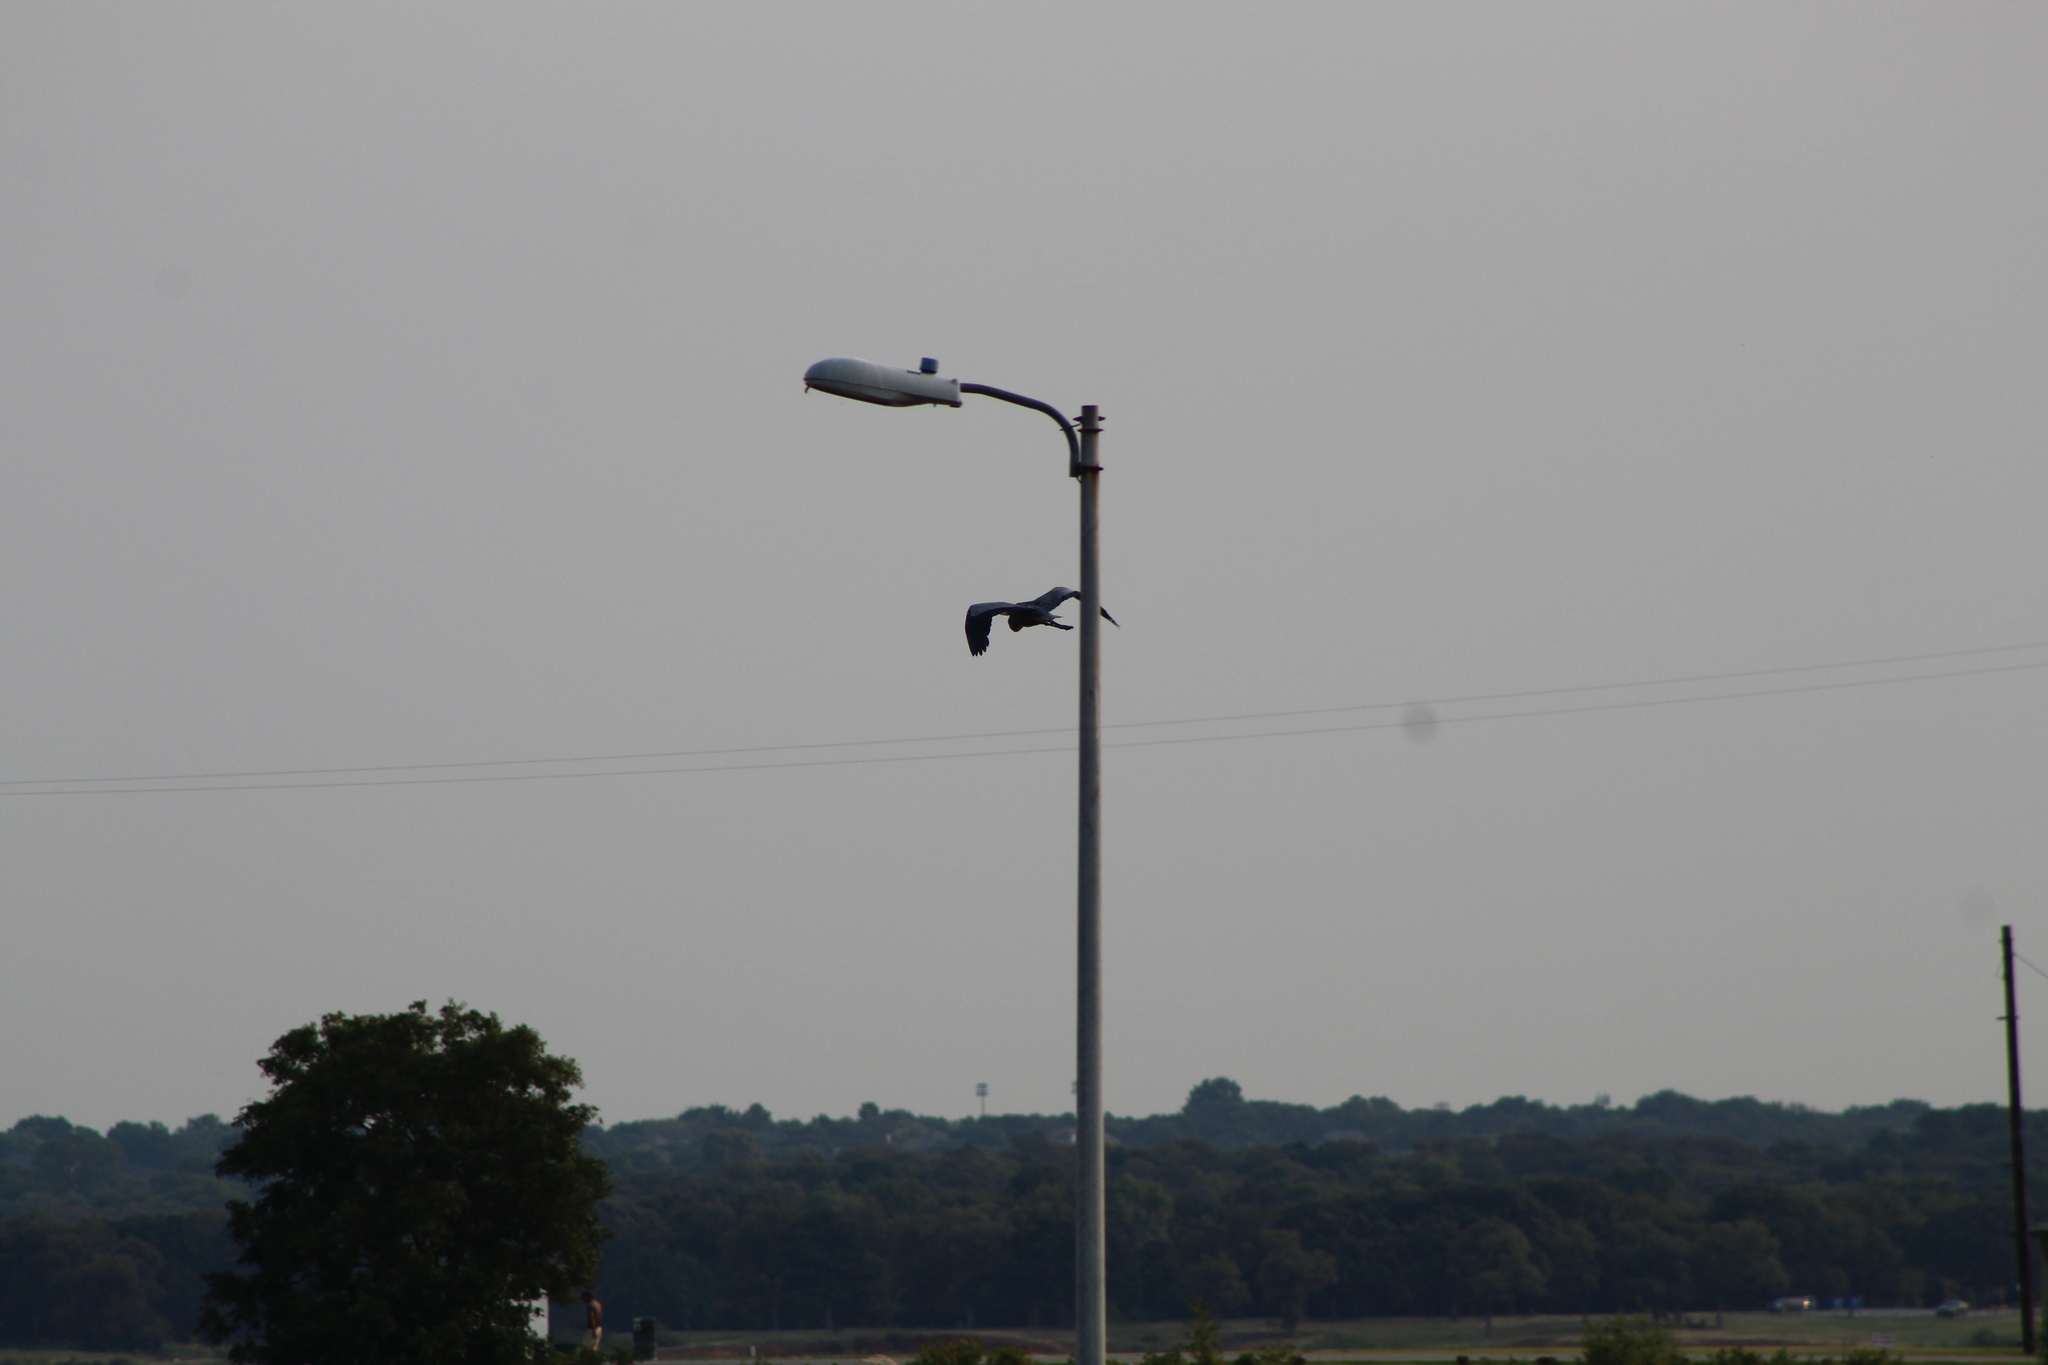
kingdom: Animalia
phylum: Chordata
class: Aves
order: Pelecaniformes
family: Ardeidae
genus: Ardea
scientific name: Ardea herodias
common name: Great blue heron
